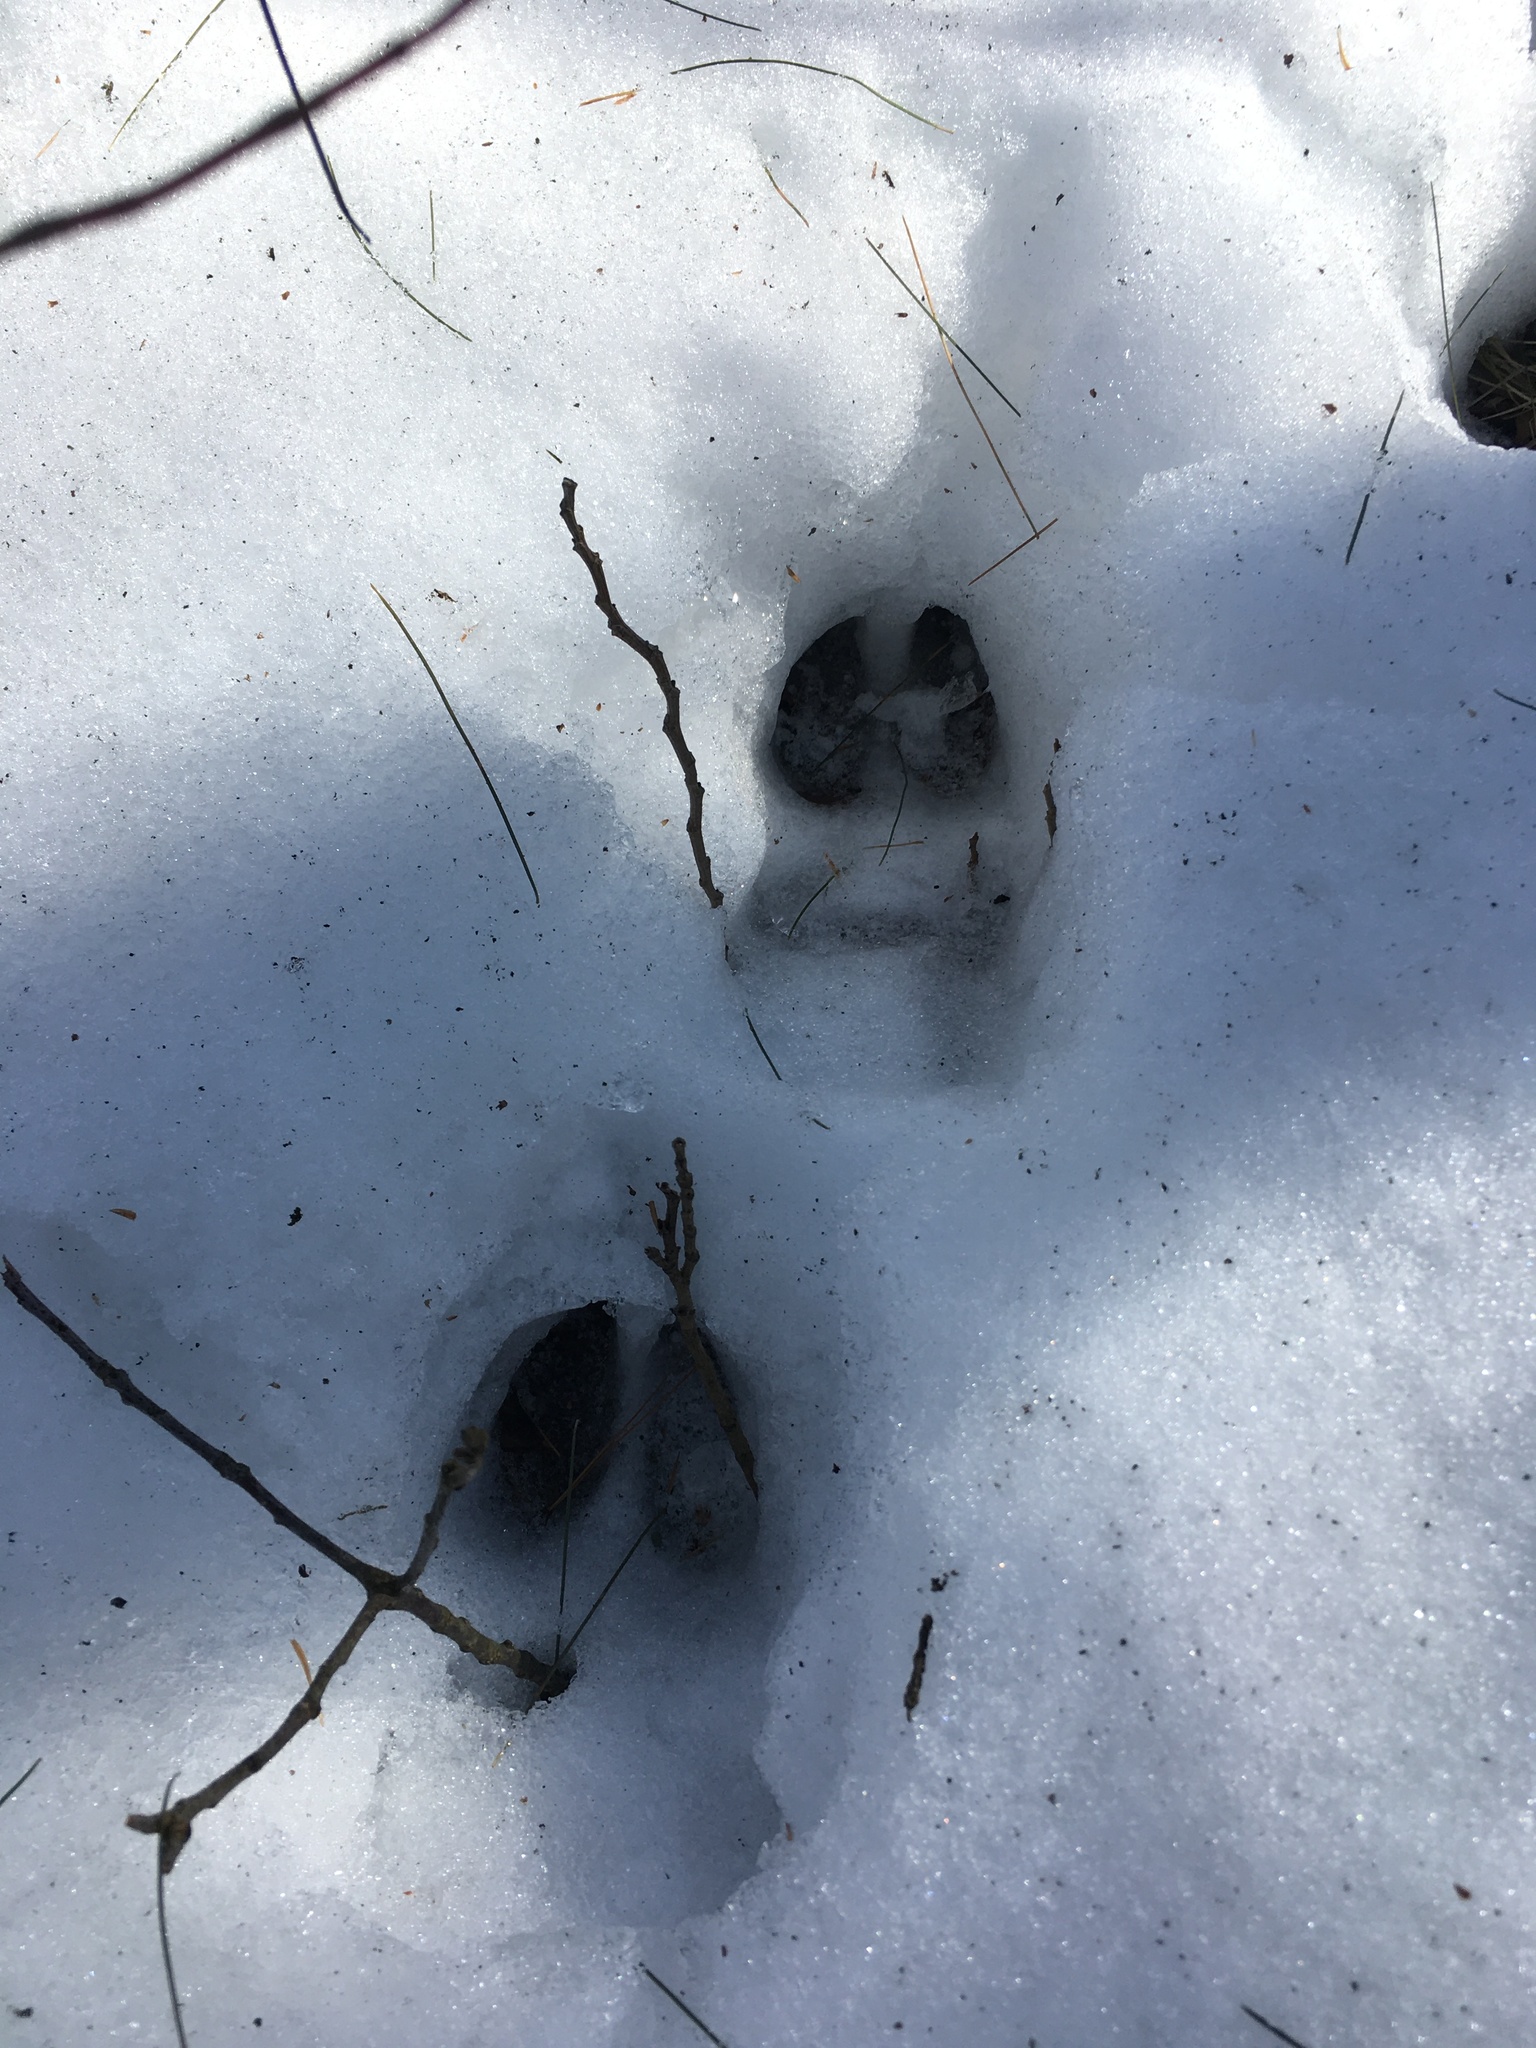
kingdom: Animalia
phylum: Chordata
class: Mammalia
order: Artiodactyla
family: Cervidae
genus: Odocoileus
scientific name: Odocoileus virginianus
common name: White-tailed deer
